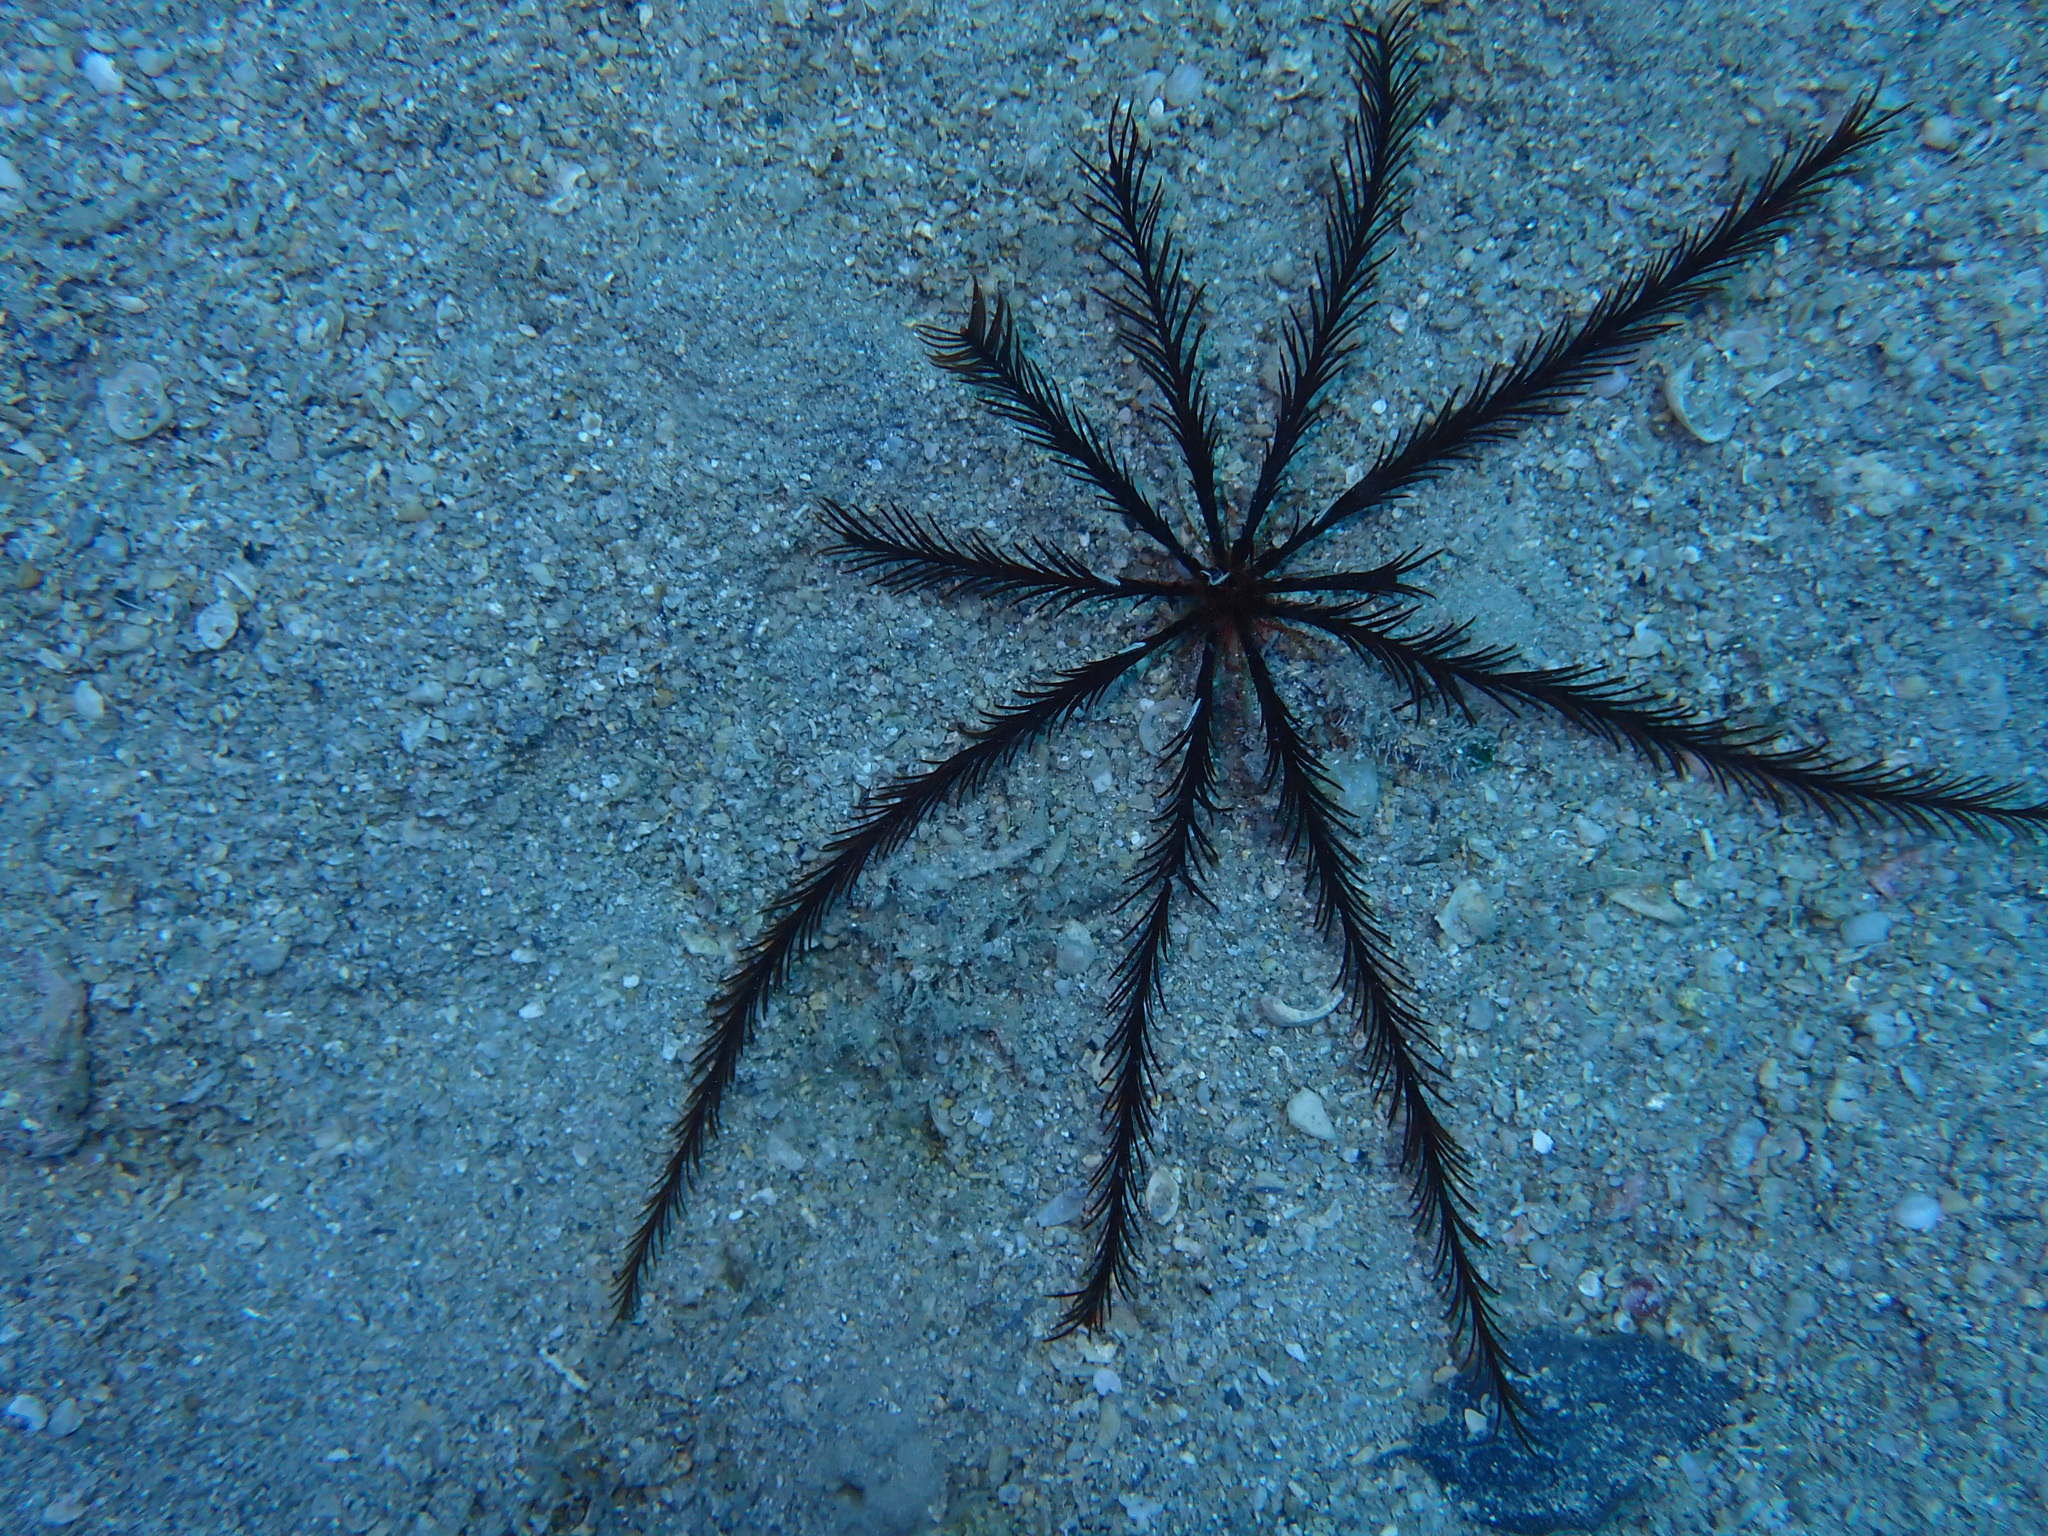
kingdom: Animalia
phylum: Echinodermata
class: Crinoidea
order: Comatulida
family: Antedonidae
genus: Antedon
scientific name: Antedon mediterranea
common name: Feather star
